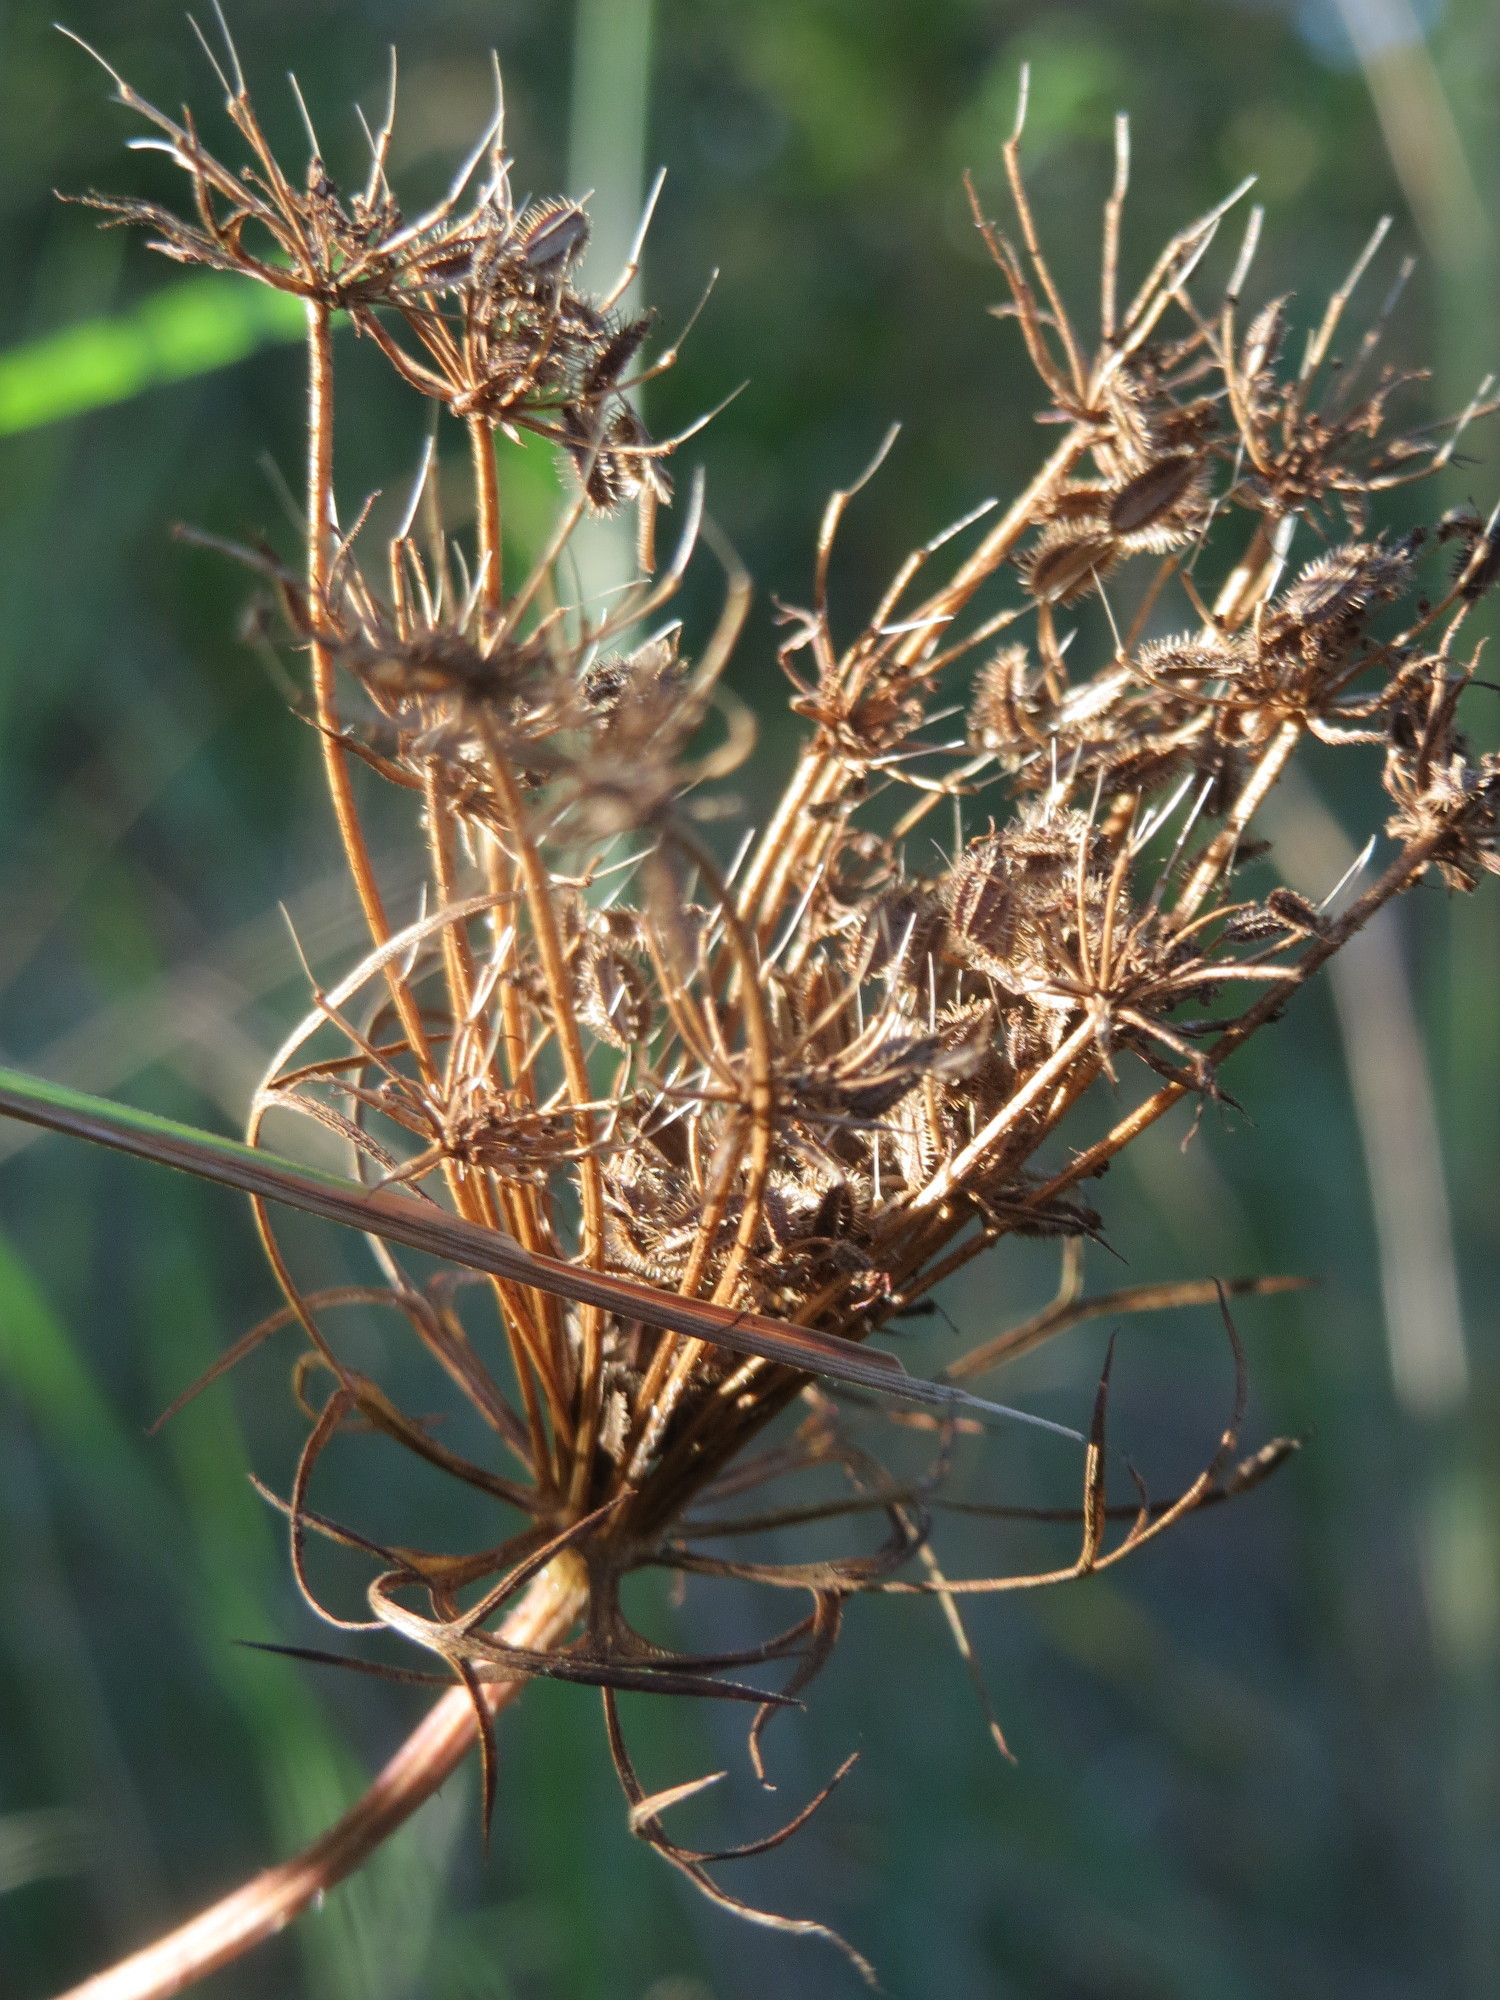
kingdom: Plantae
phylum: Tracheophyta
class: Magnoliopsida
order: Apiales
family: Apiaceae
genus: Daucus
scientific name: Daucus carota
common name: Wild carrot
